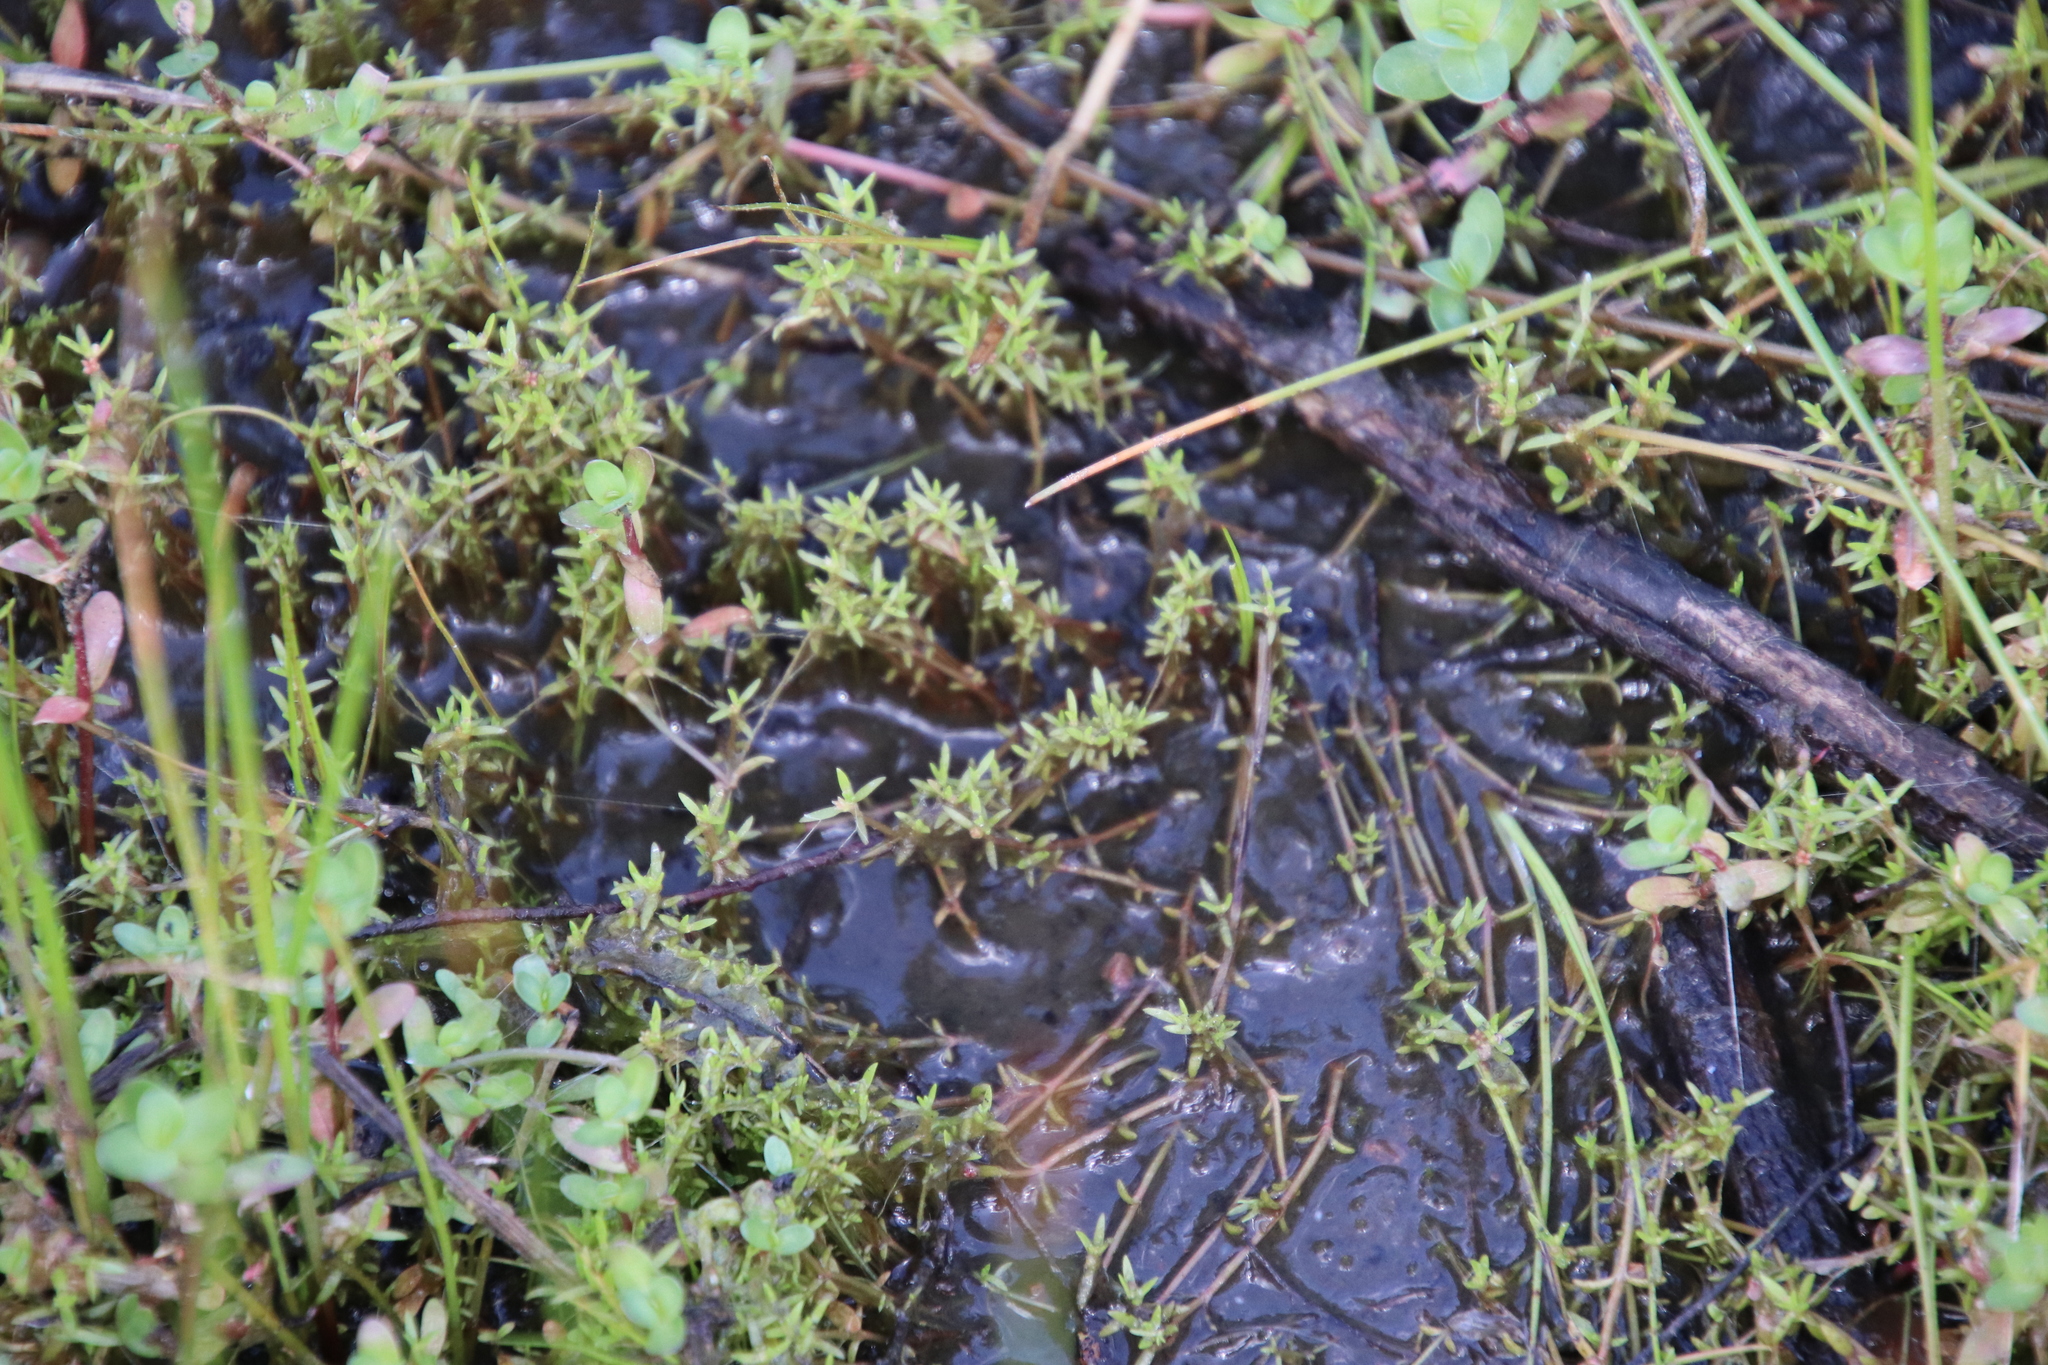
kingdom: Plantae
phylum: Tracheophyta
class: Magnoliopsida
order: Saxifragales
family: Crassulaceae
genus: Crassula
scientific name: Crassula aquatica
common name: Pigmyweed
